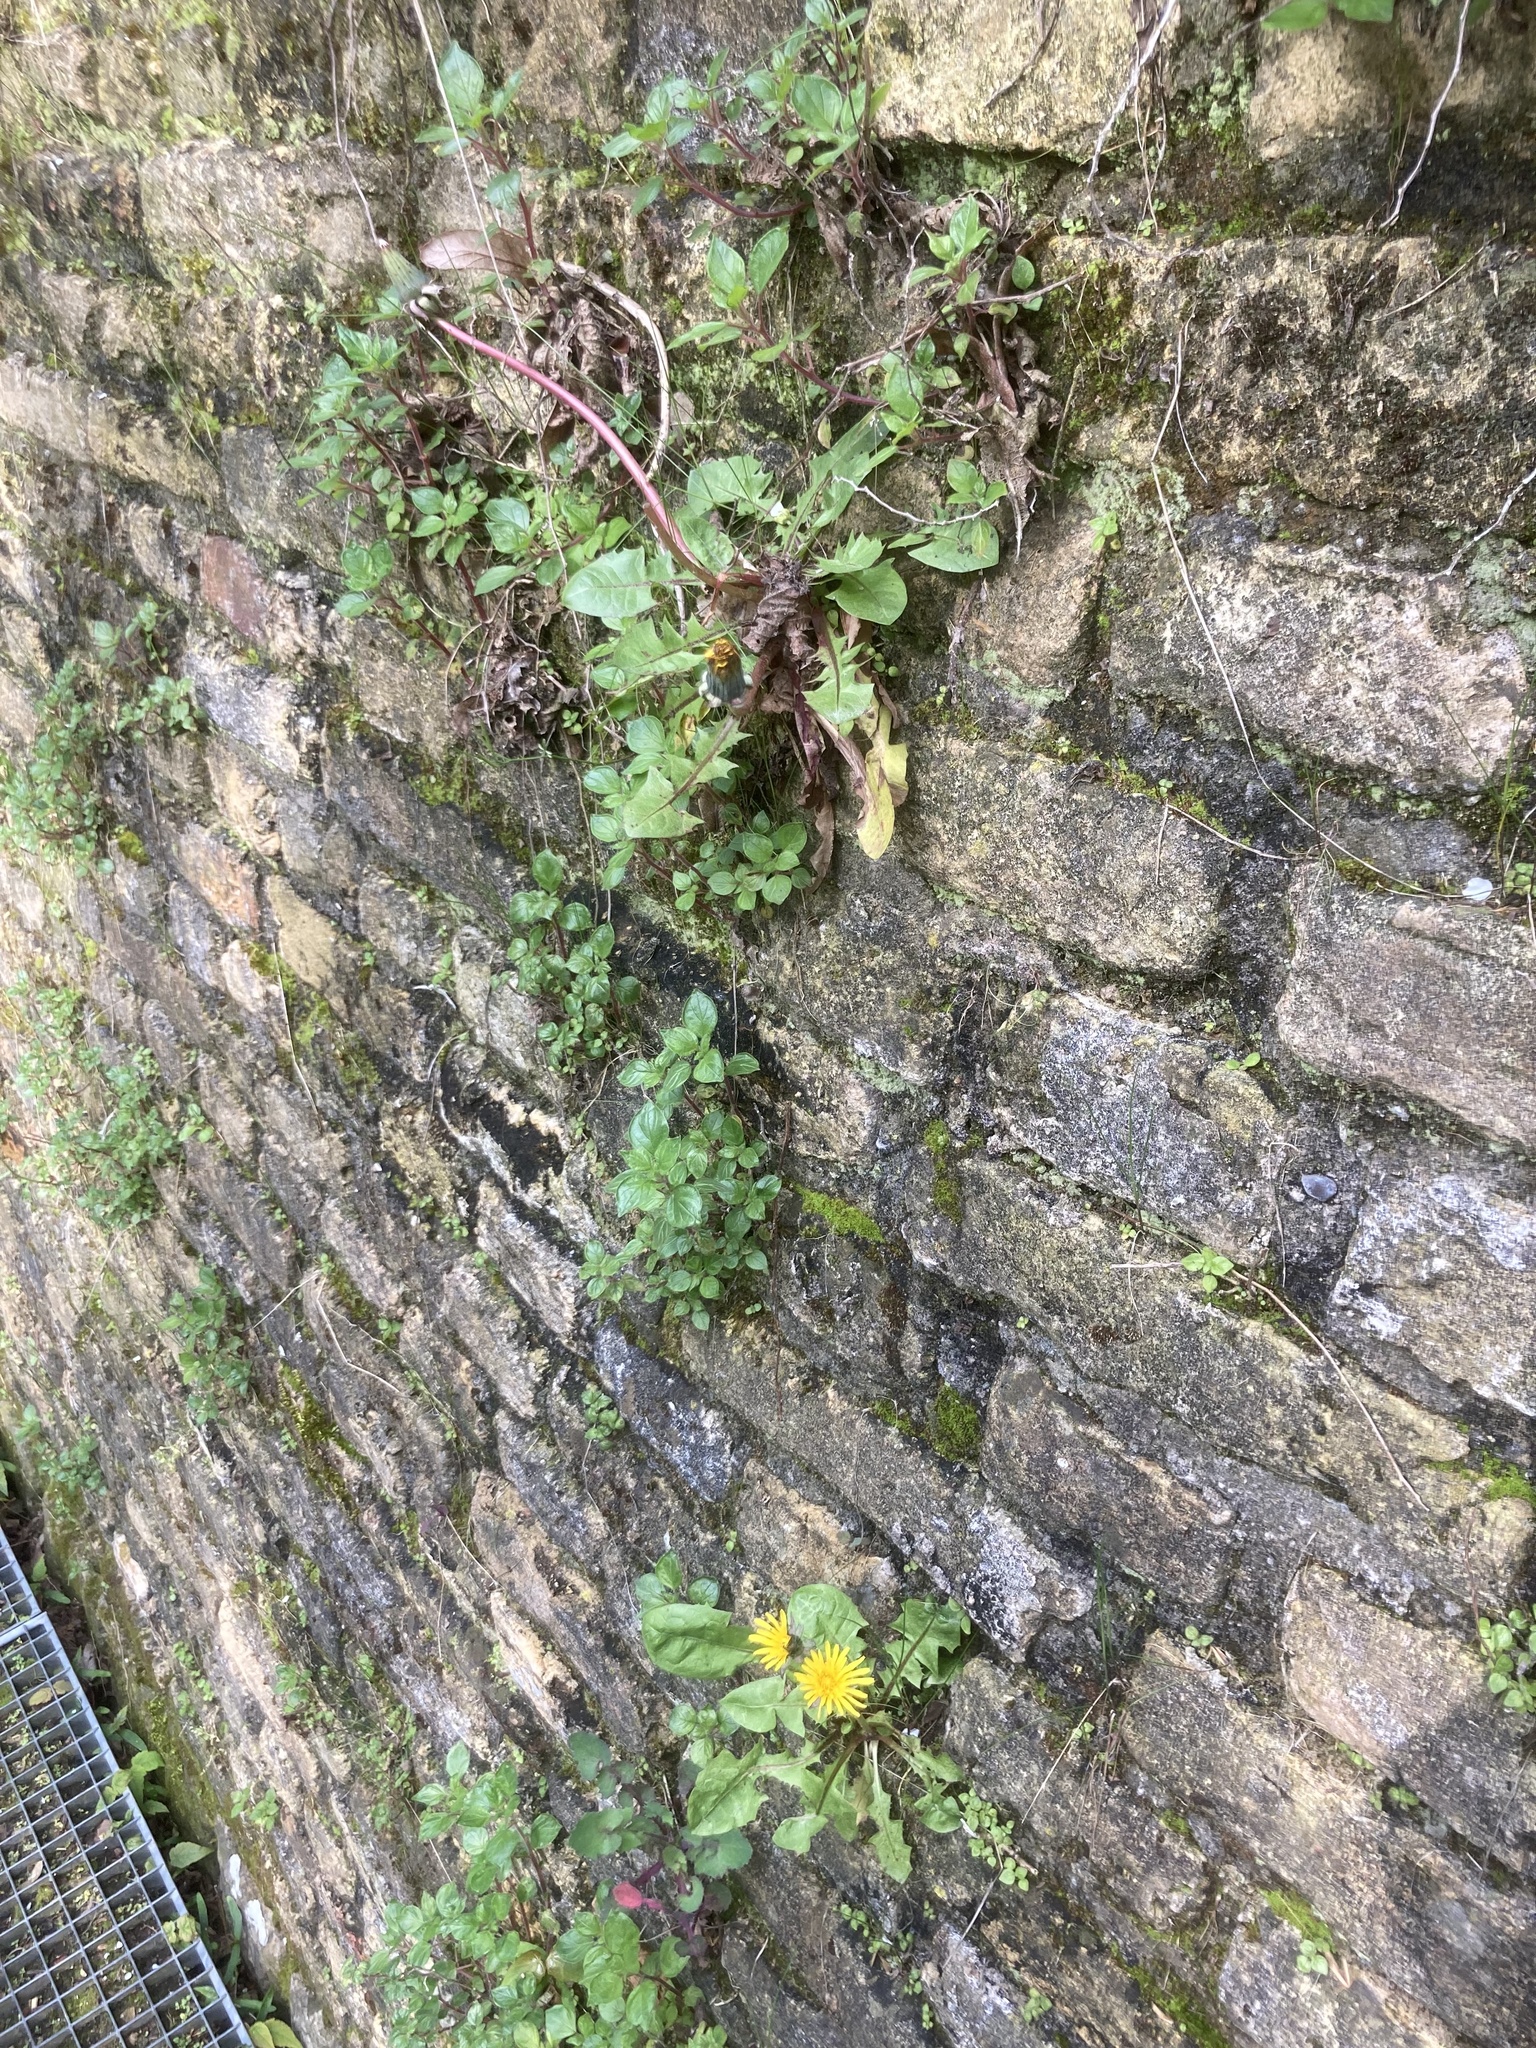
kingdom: Plantae
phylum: Tracheophyta
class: Magnoliopsida
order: Asterales
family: Asteraceae
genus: Taraxacum
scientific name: Taraxacum officinale
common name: Common dandelion
